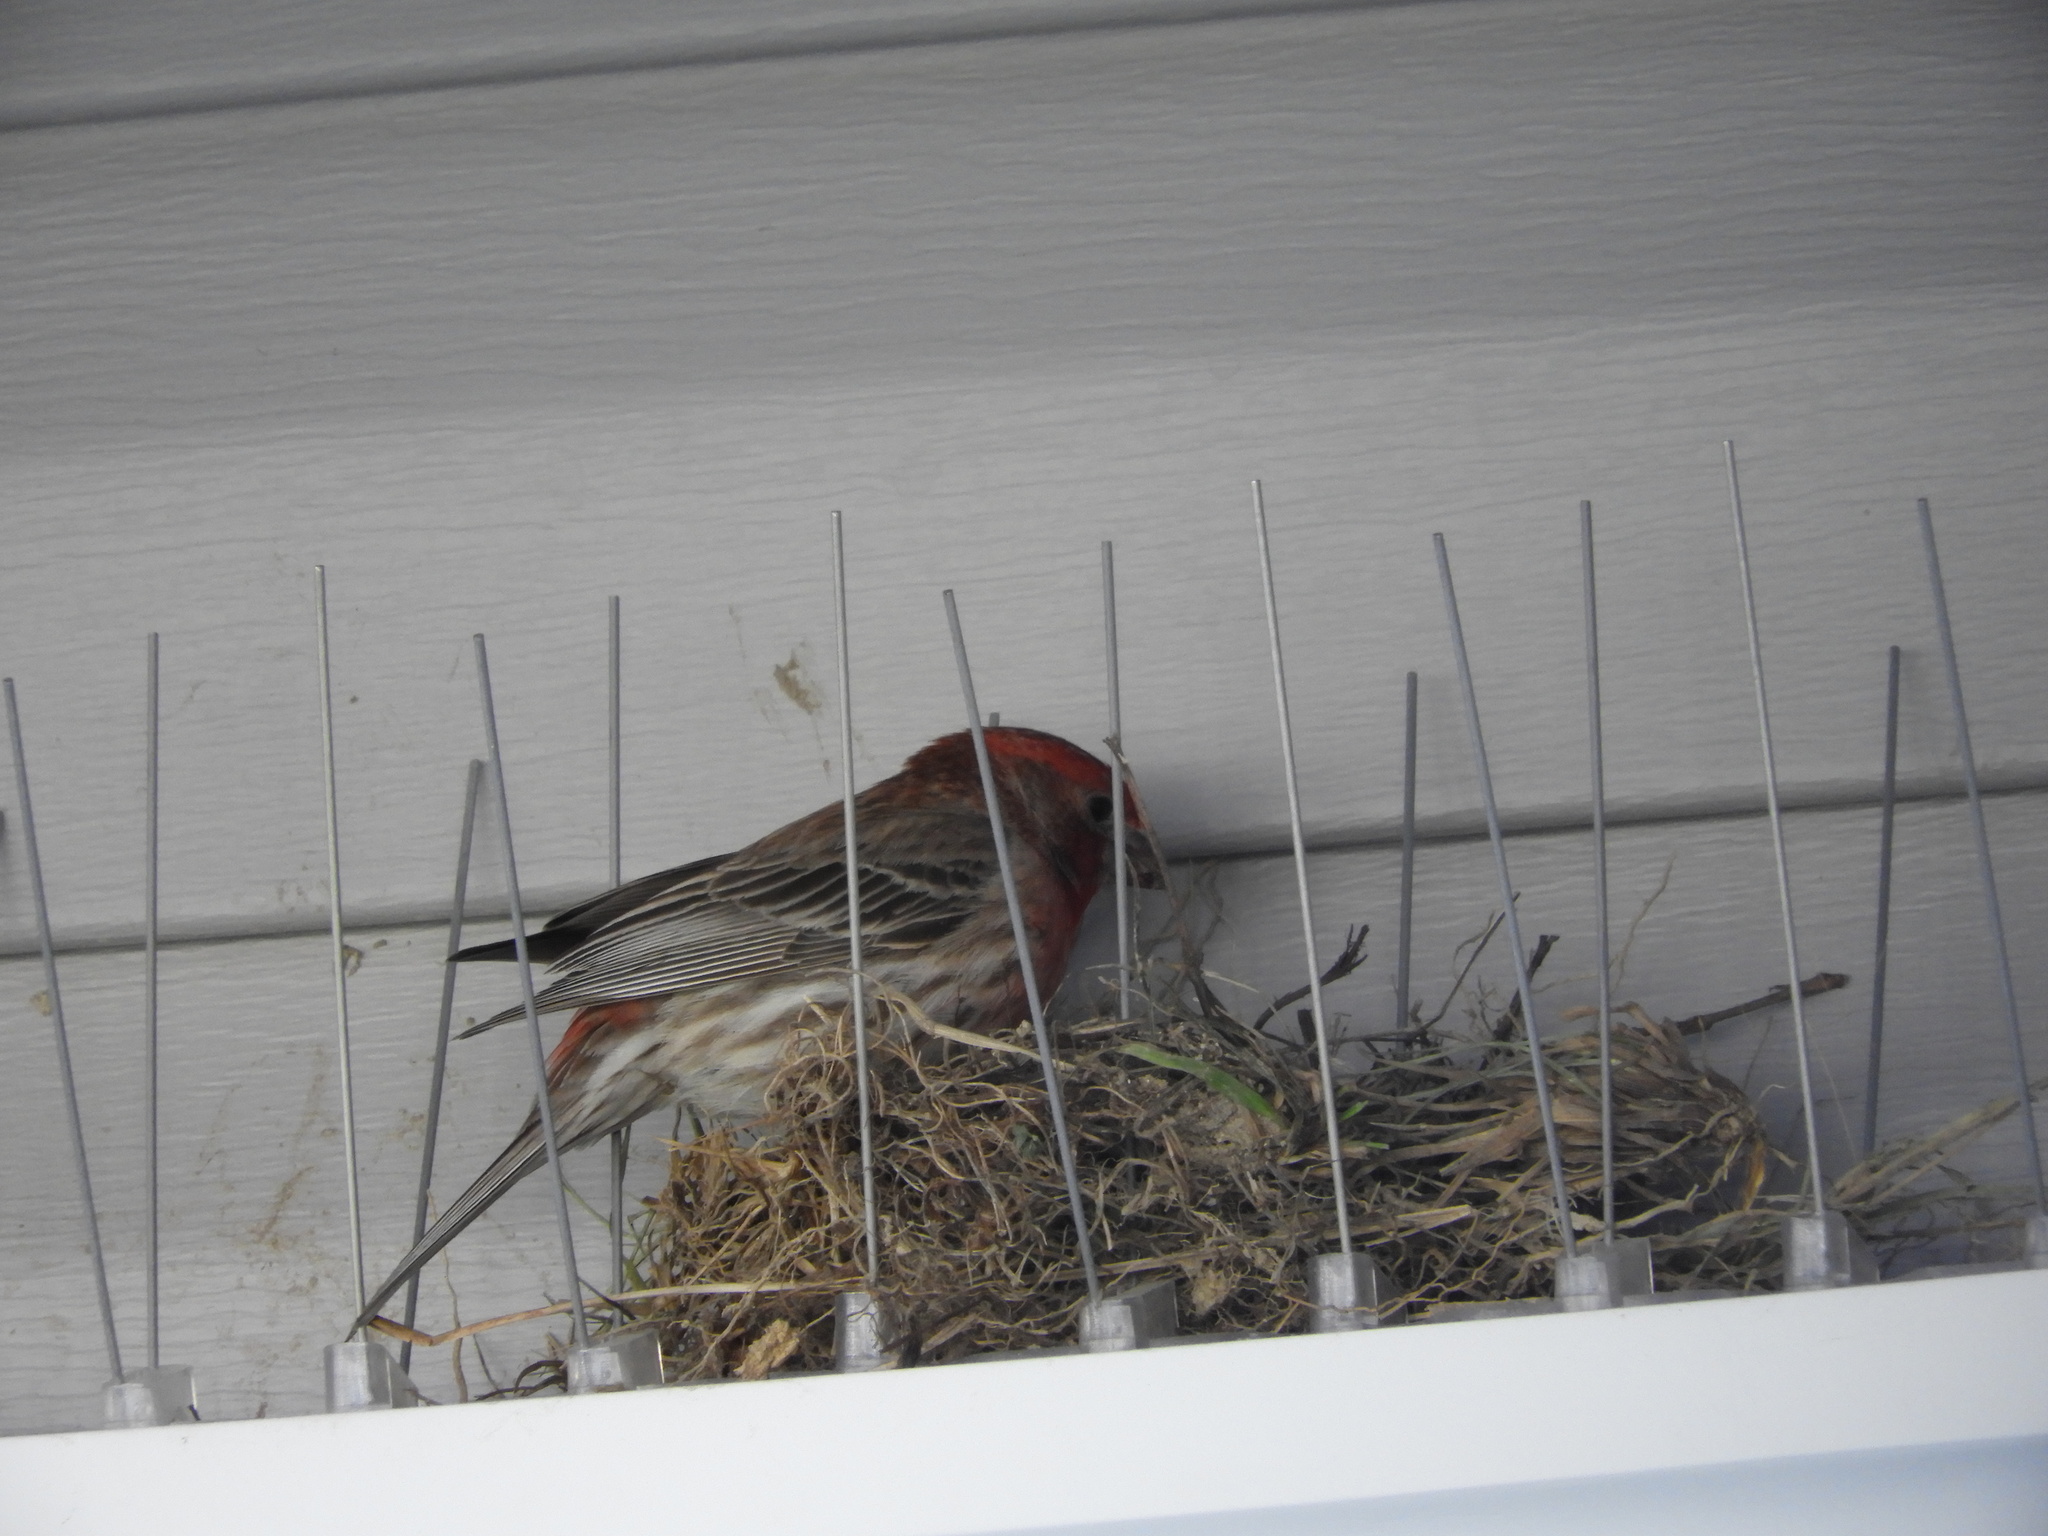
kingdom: Animalia
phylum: Chordata
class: Aves
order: Passeriformes
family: Fringillidae
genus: Haemorhous
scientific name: Haemorhous mexicanus
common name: House finch
